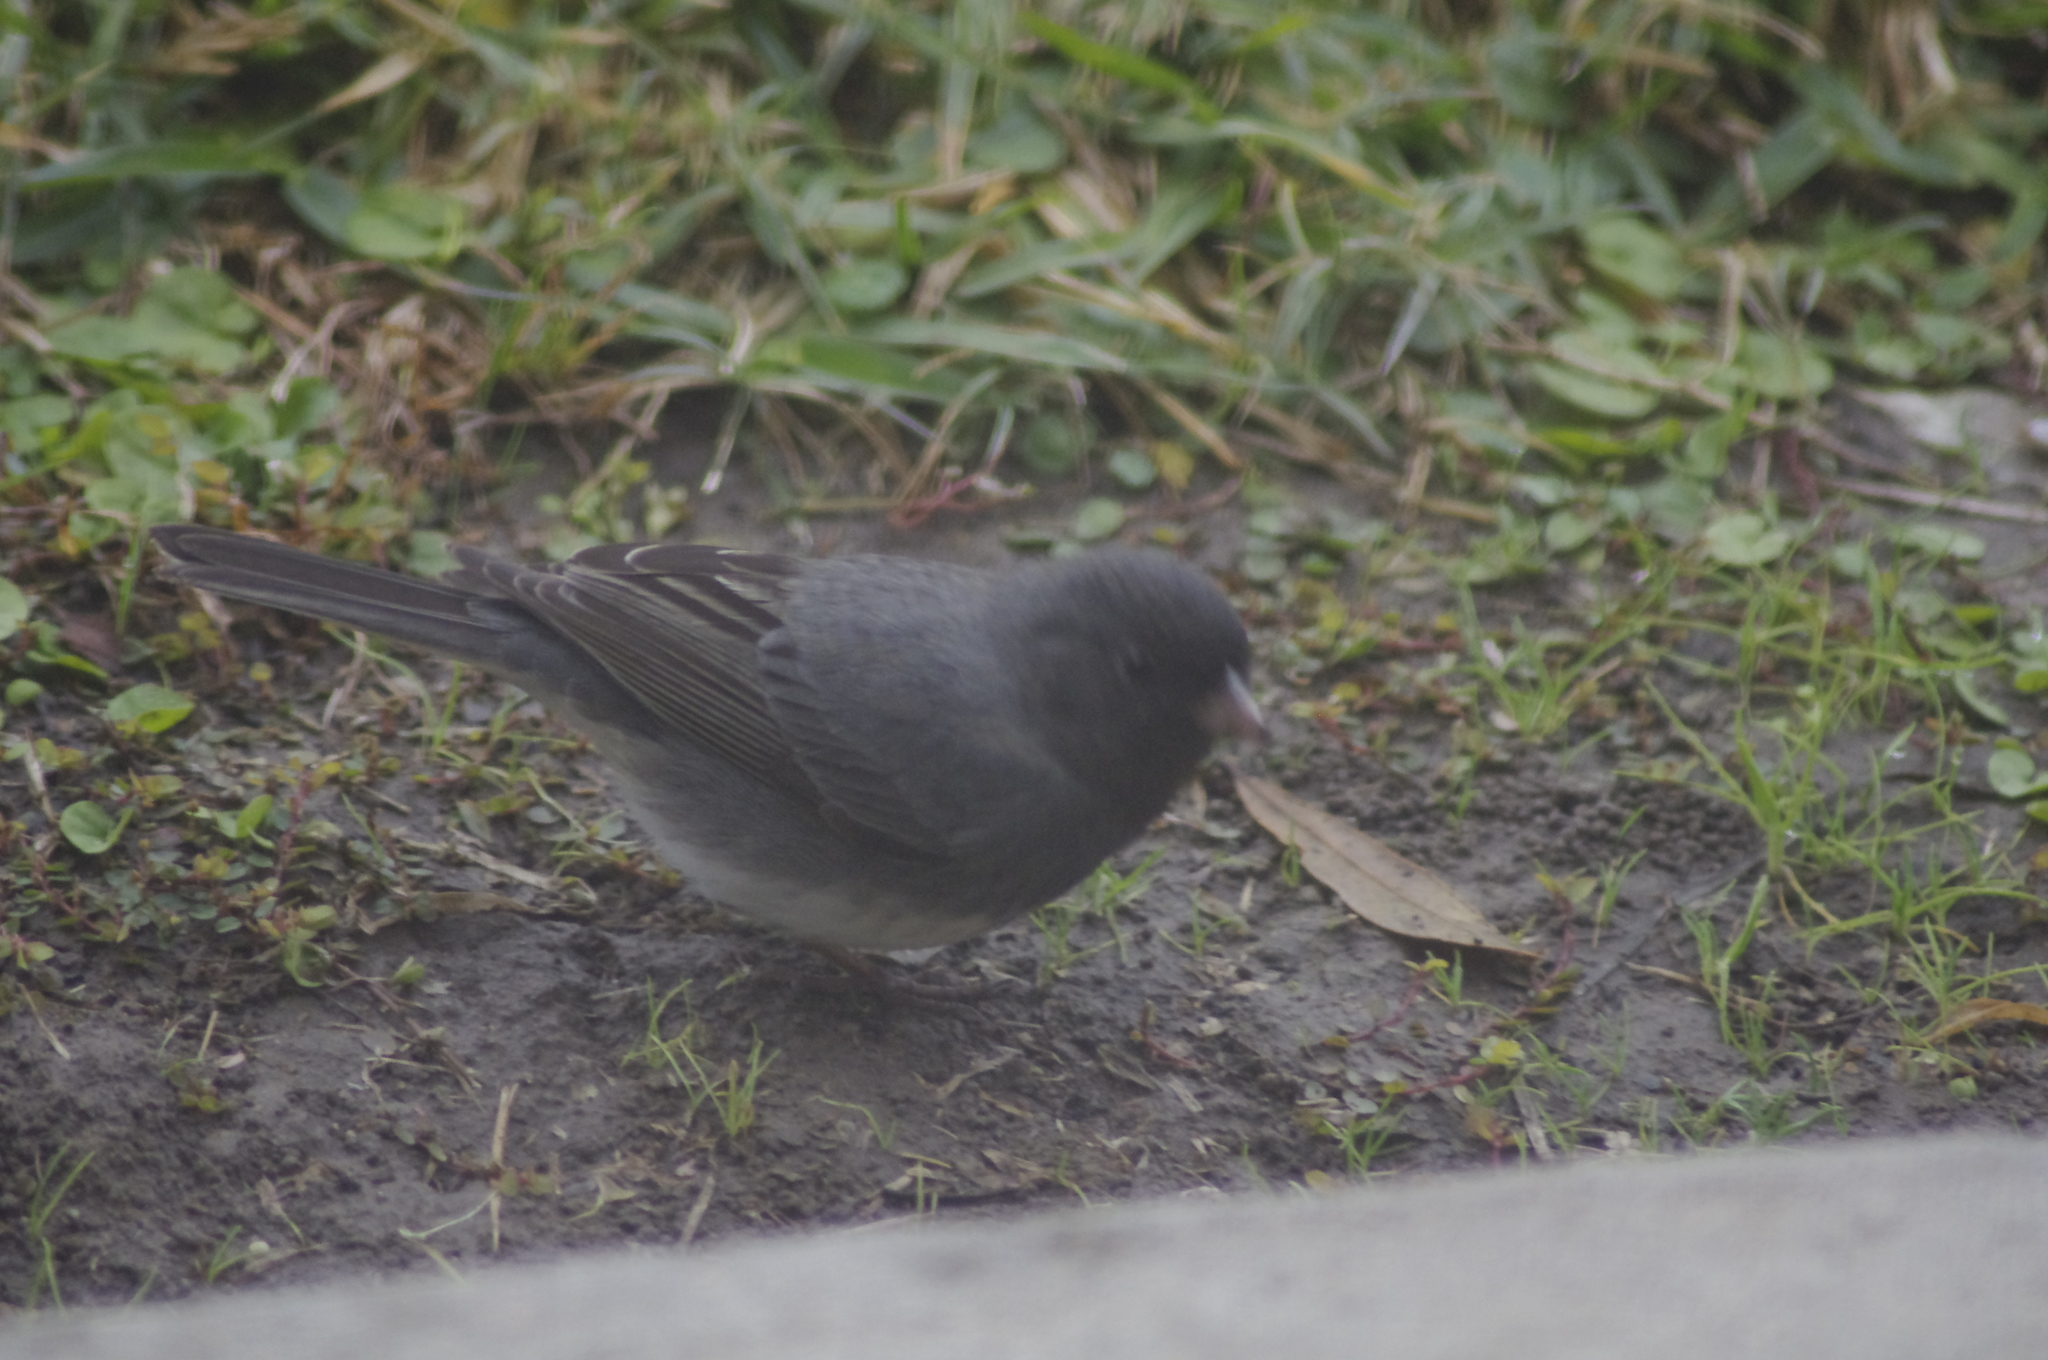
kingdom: Animalia
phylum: Chordata
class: Aves
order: Passeriformes
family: Passerellidae
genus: Junco
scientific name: Junco hyemalis
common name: Dark-eyed junco
